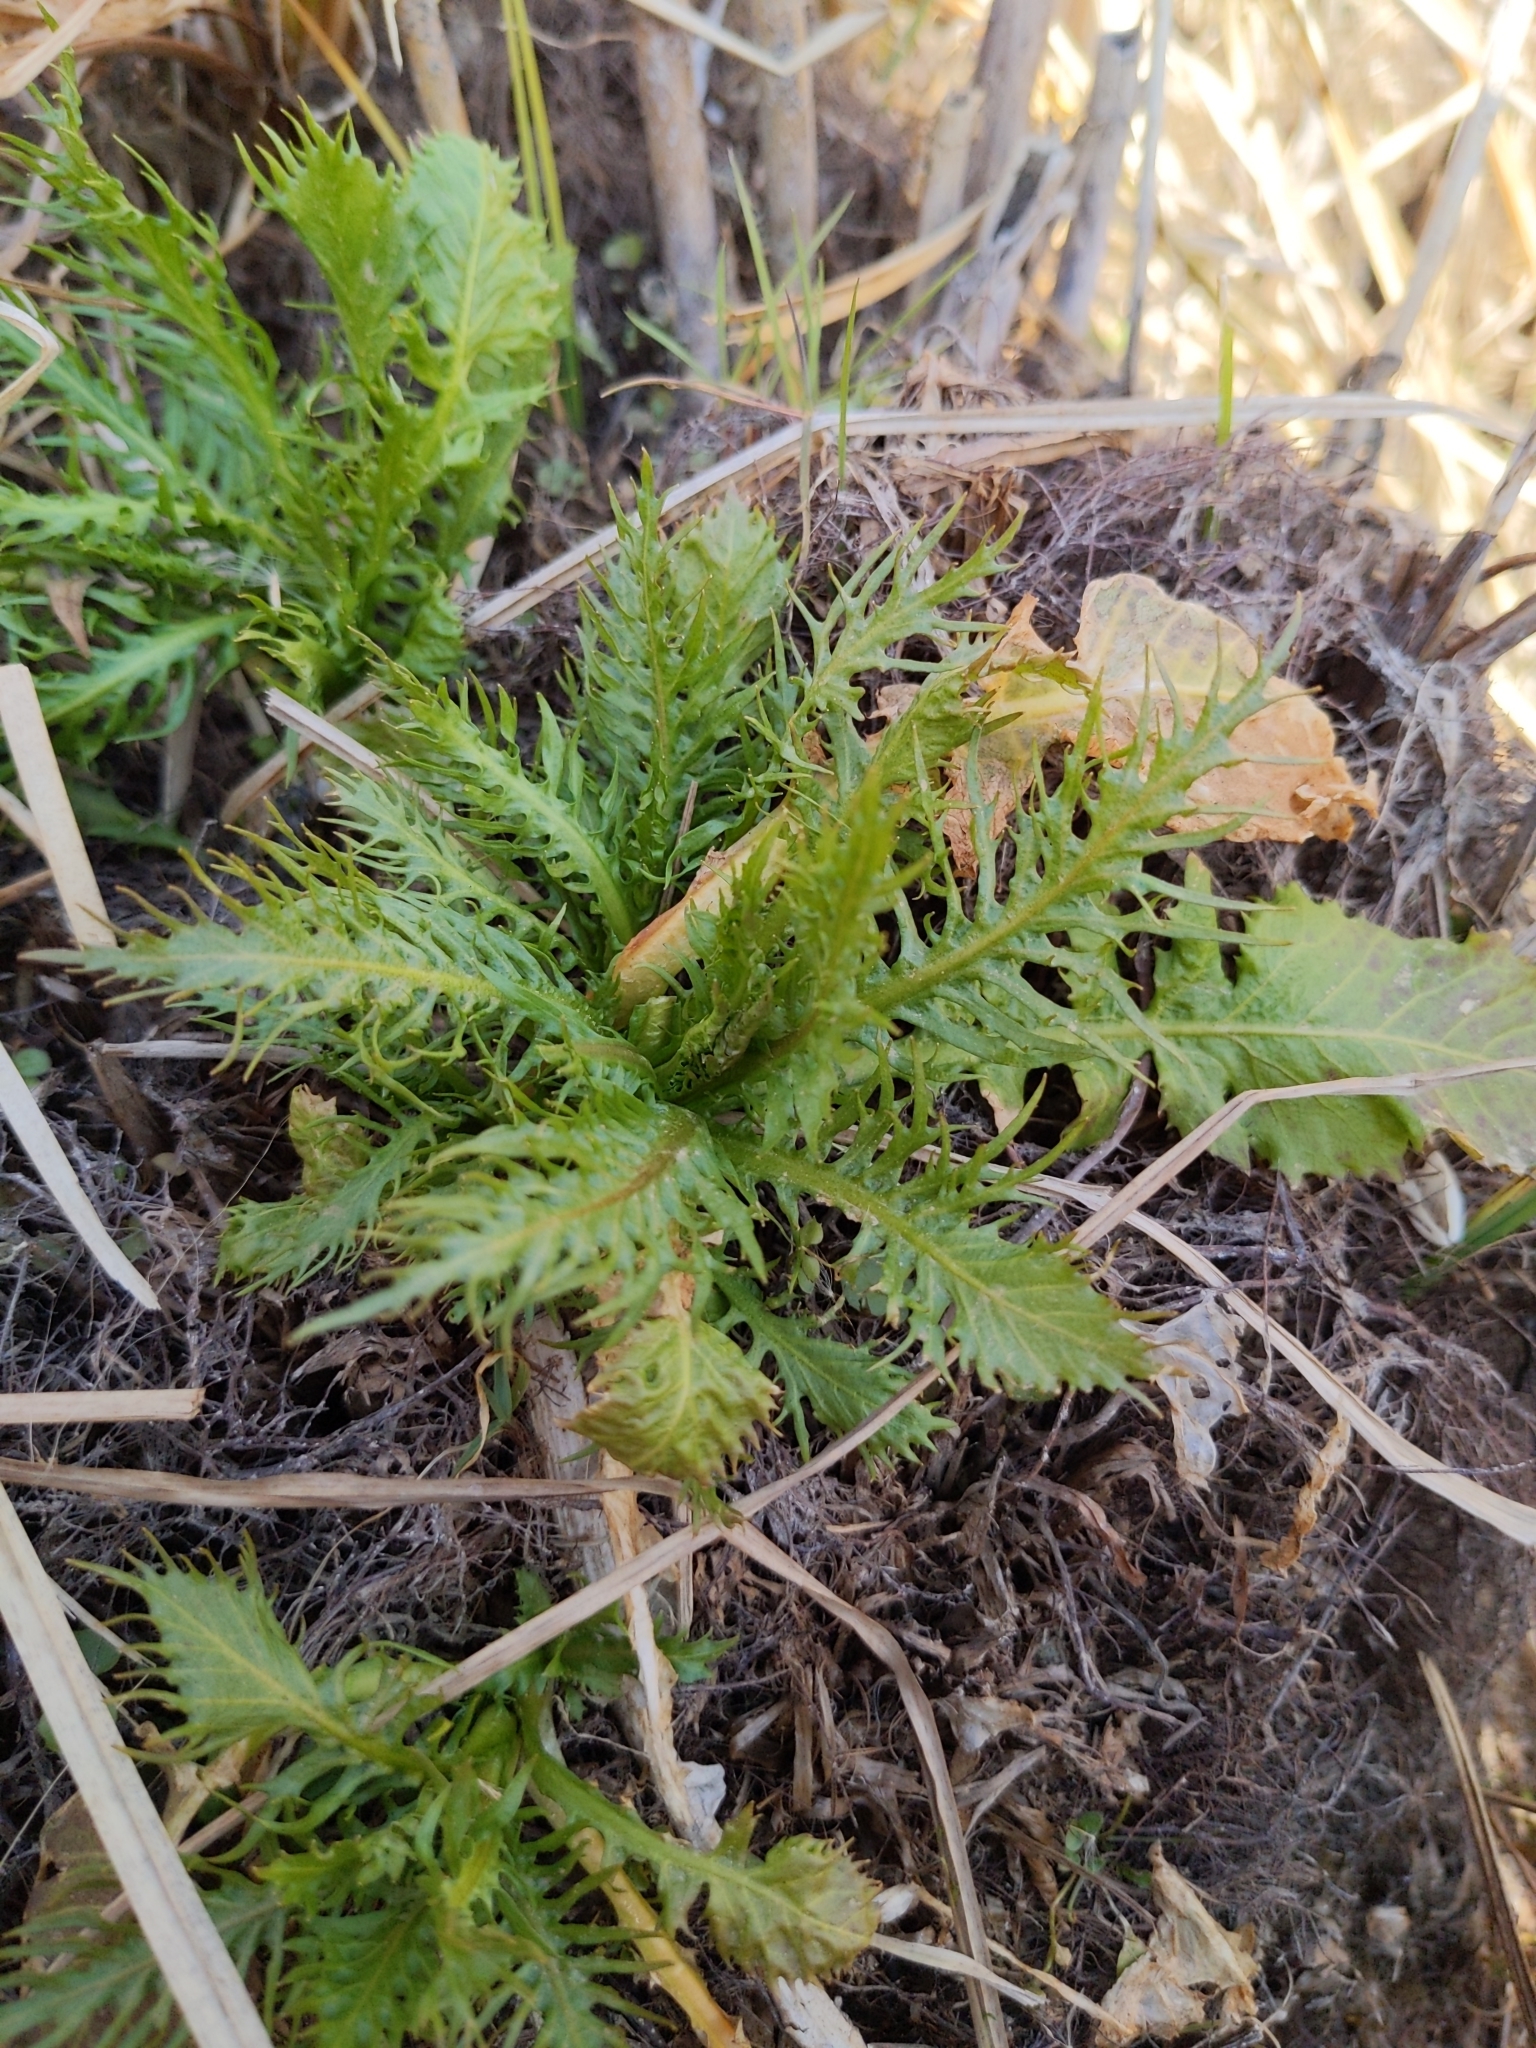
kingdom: Plantae
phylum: Tracheophyta
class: Magnoliopsida
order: Brassicales
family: Brassicaceae
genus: Rorippa
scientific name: Rorippa amphibia
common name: Great yellow-cress
